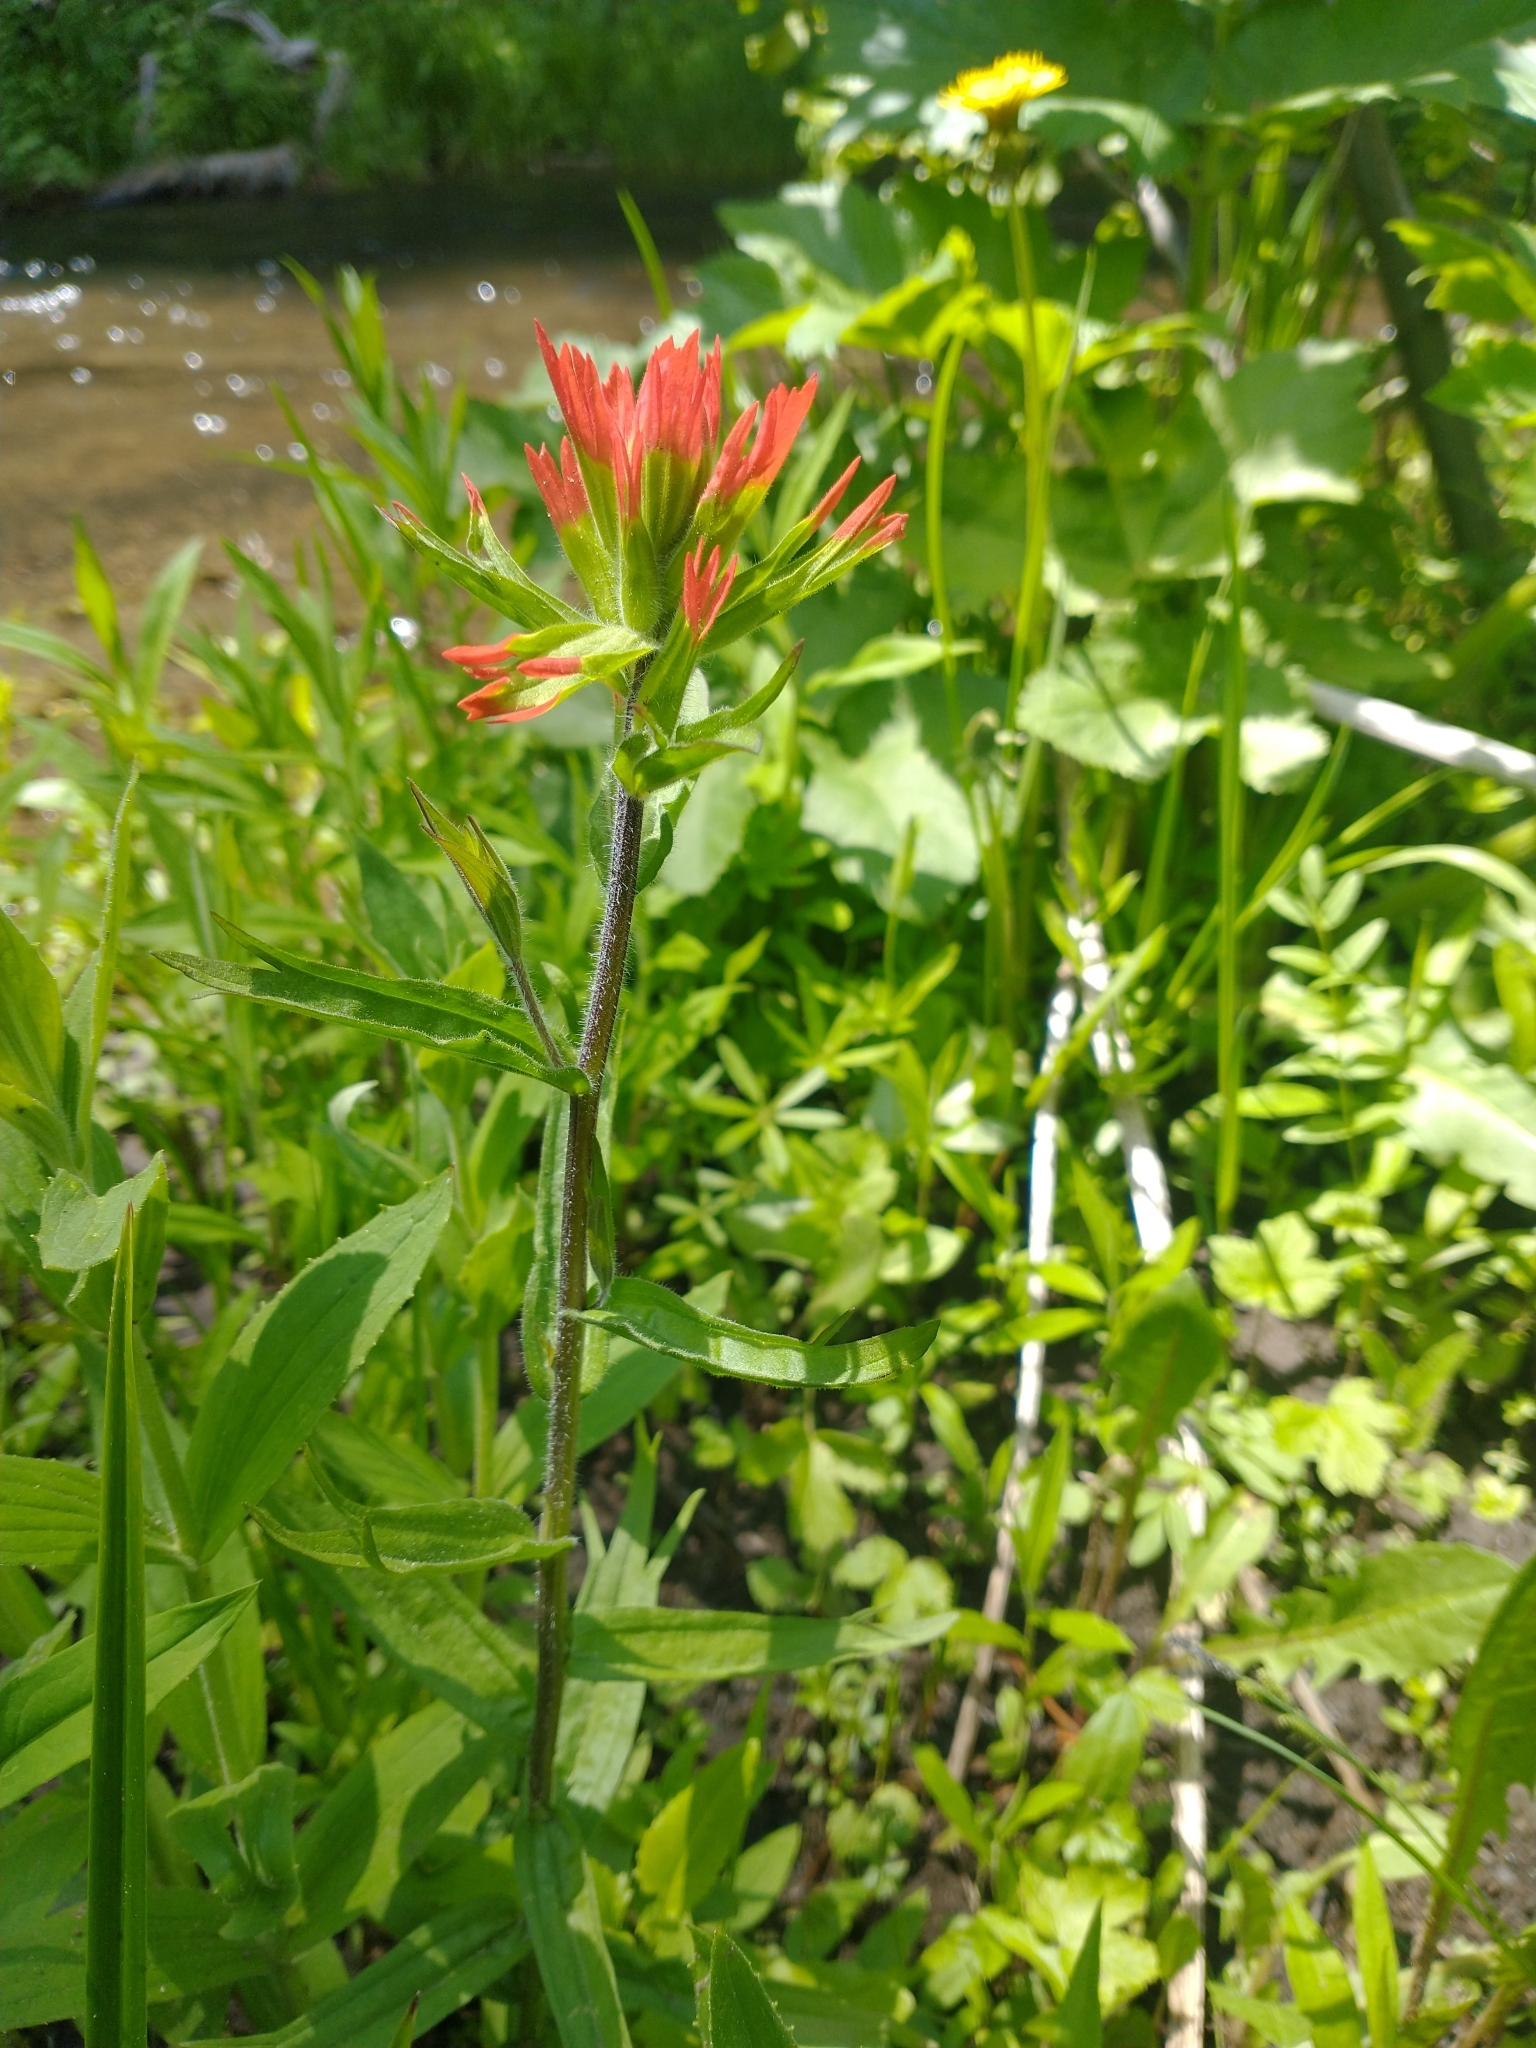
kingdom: Plantae
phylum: Tracheophyta
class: Magnoliopsida
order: Lamiales
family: Orobanchaceae
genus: Castilleja
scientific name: Castilleja suksdorfii
